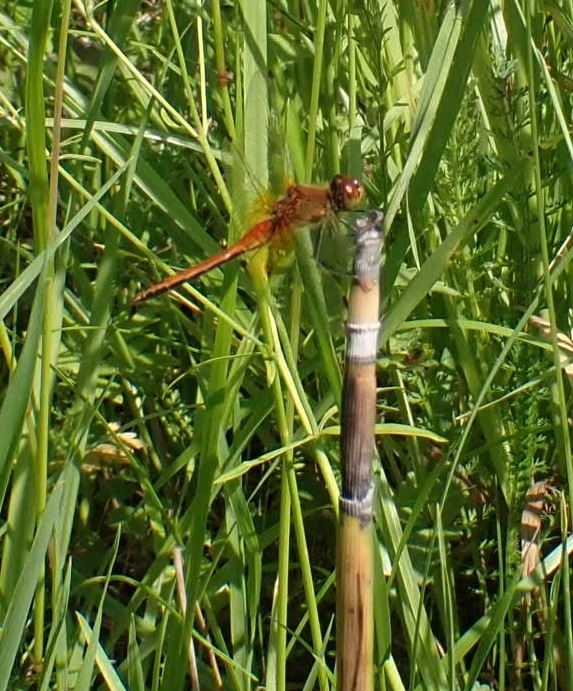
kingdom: Animalia
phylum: Arthropoda
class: Insecta
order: Odonata
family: Libellulidae
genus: Sympetrum
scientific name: Sympetrum flaveolum
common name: Yellow-winged darter
